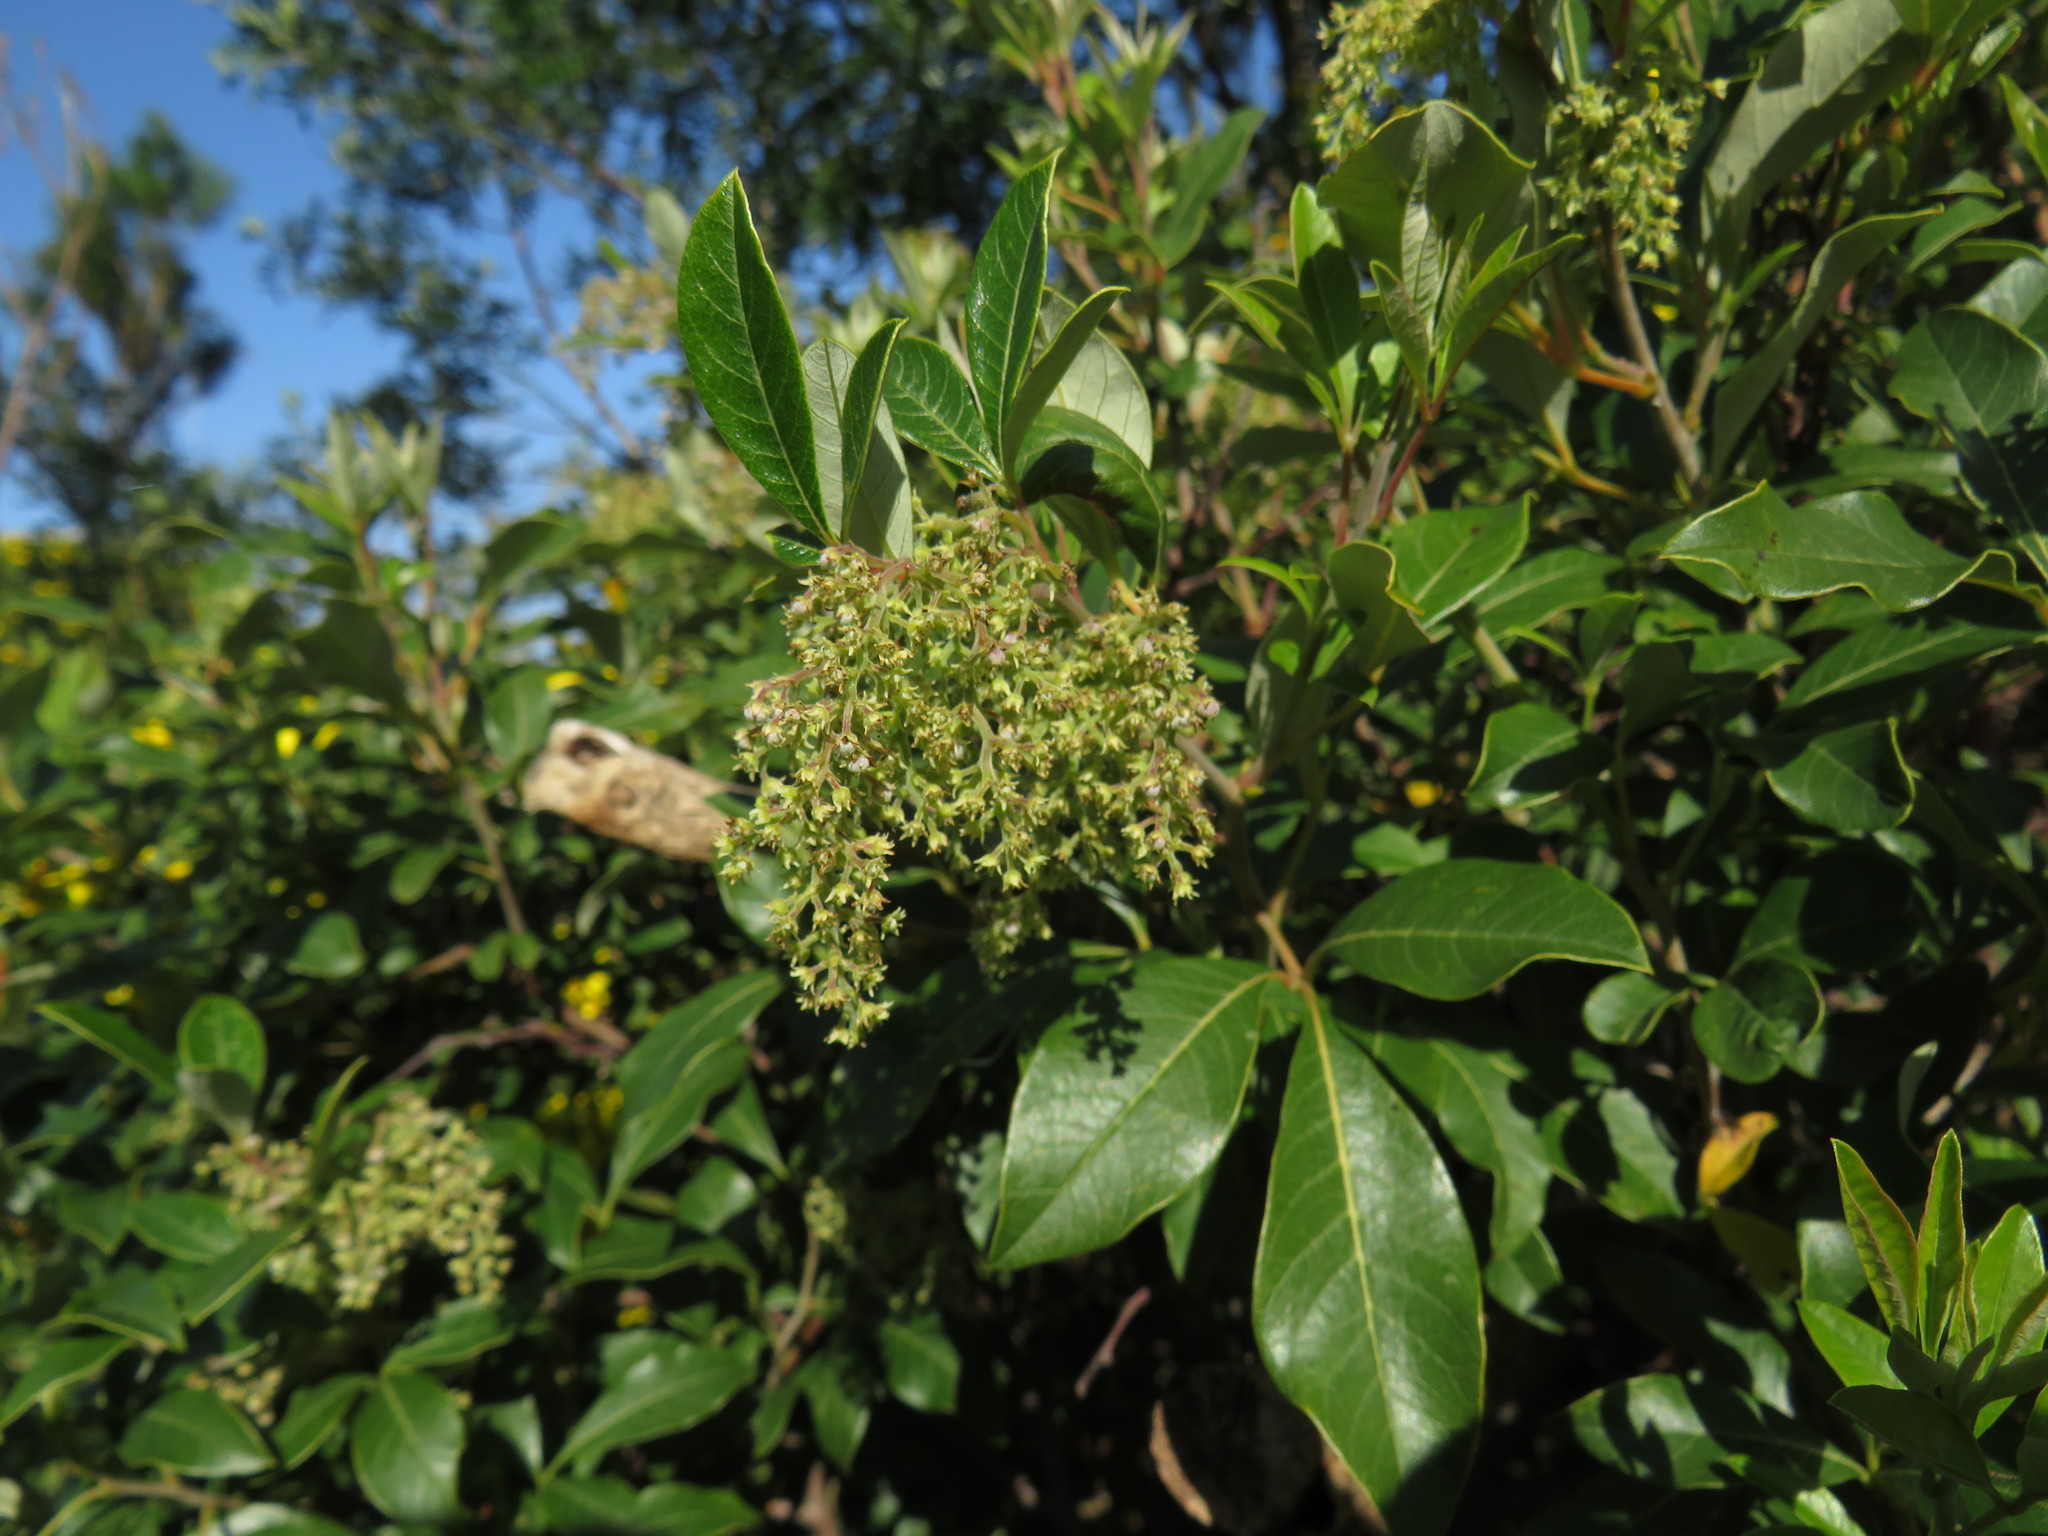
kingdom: Plantae
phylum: Tracheophyta
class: Magnoliopsida
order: Sapindales
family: Anacardiaceae
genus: Searsia
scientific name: Searsia tomentosa
